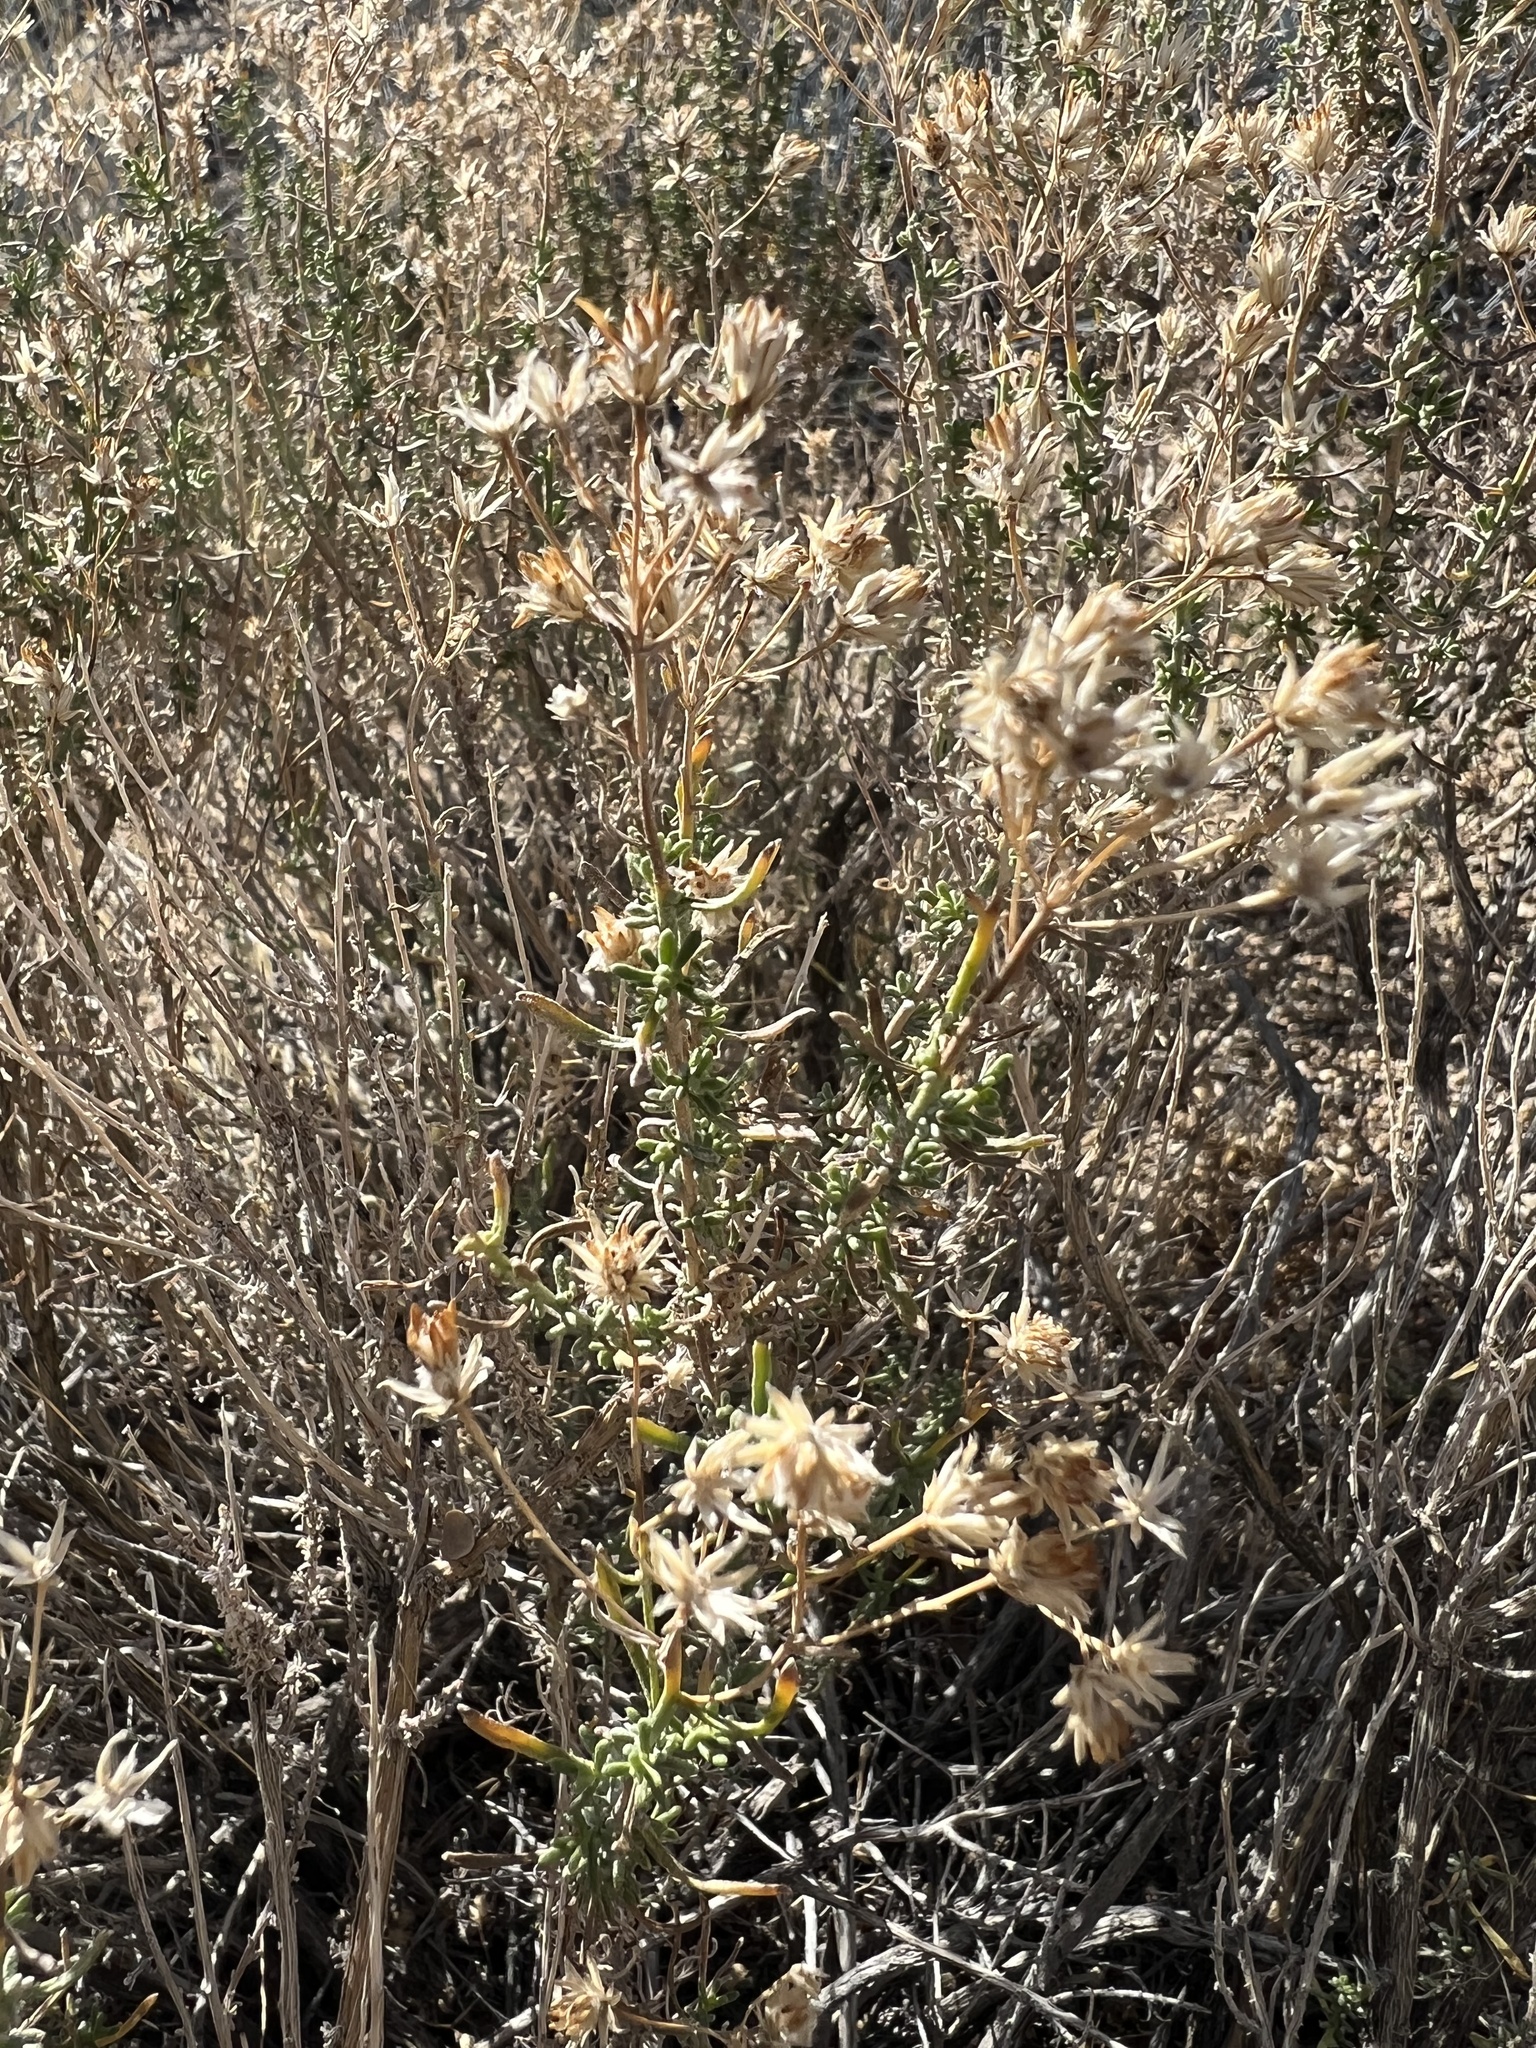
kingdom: Plantae
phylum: Tracheophyta
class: Magnoliopsida
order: Asterales
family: Asteraceae
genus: Ericameria
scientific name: Ericameria cooperi
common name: Cooper's goldenbush
